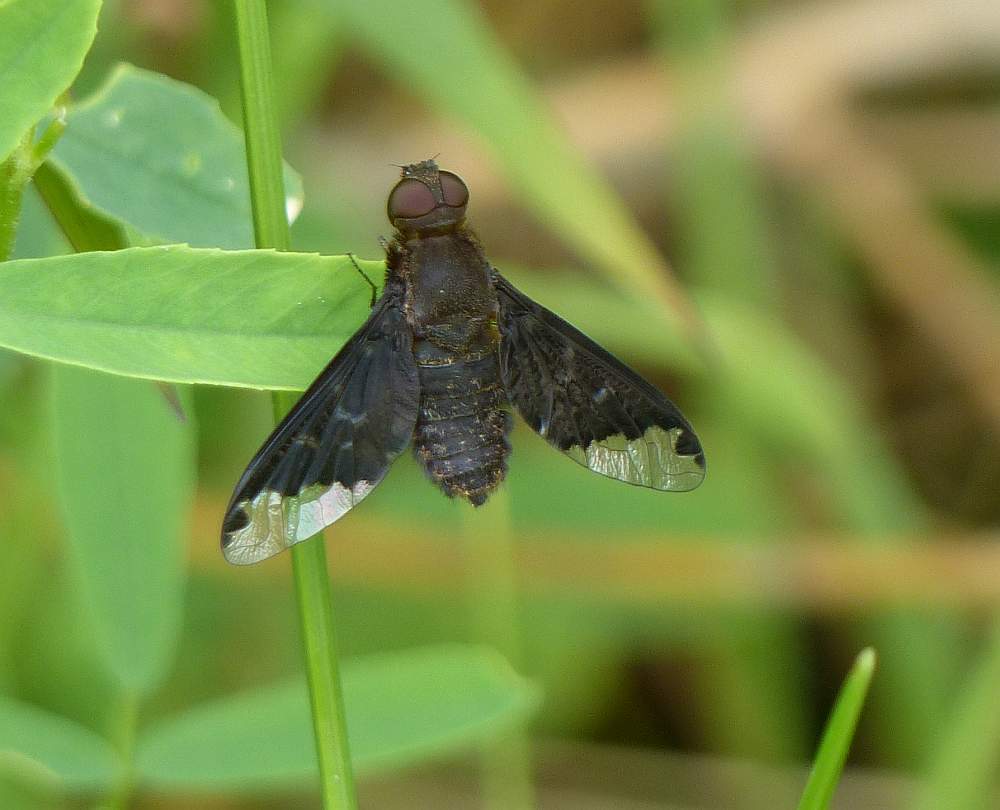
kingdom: Animalia
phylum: Arthropoda
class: Insecta
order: Diptera
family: Bombyliidae
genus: Hemipenthes
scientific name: Hemipenthes sinuosus
